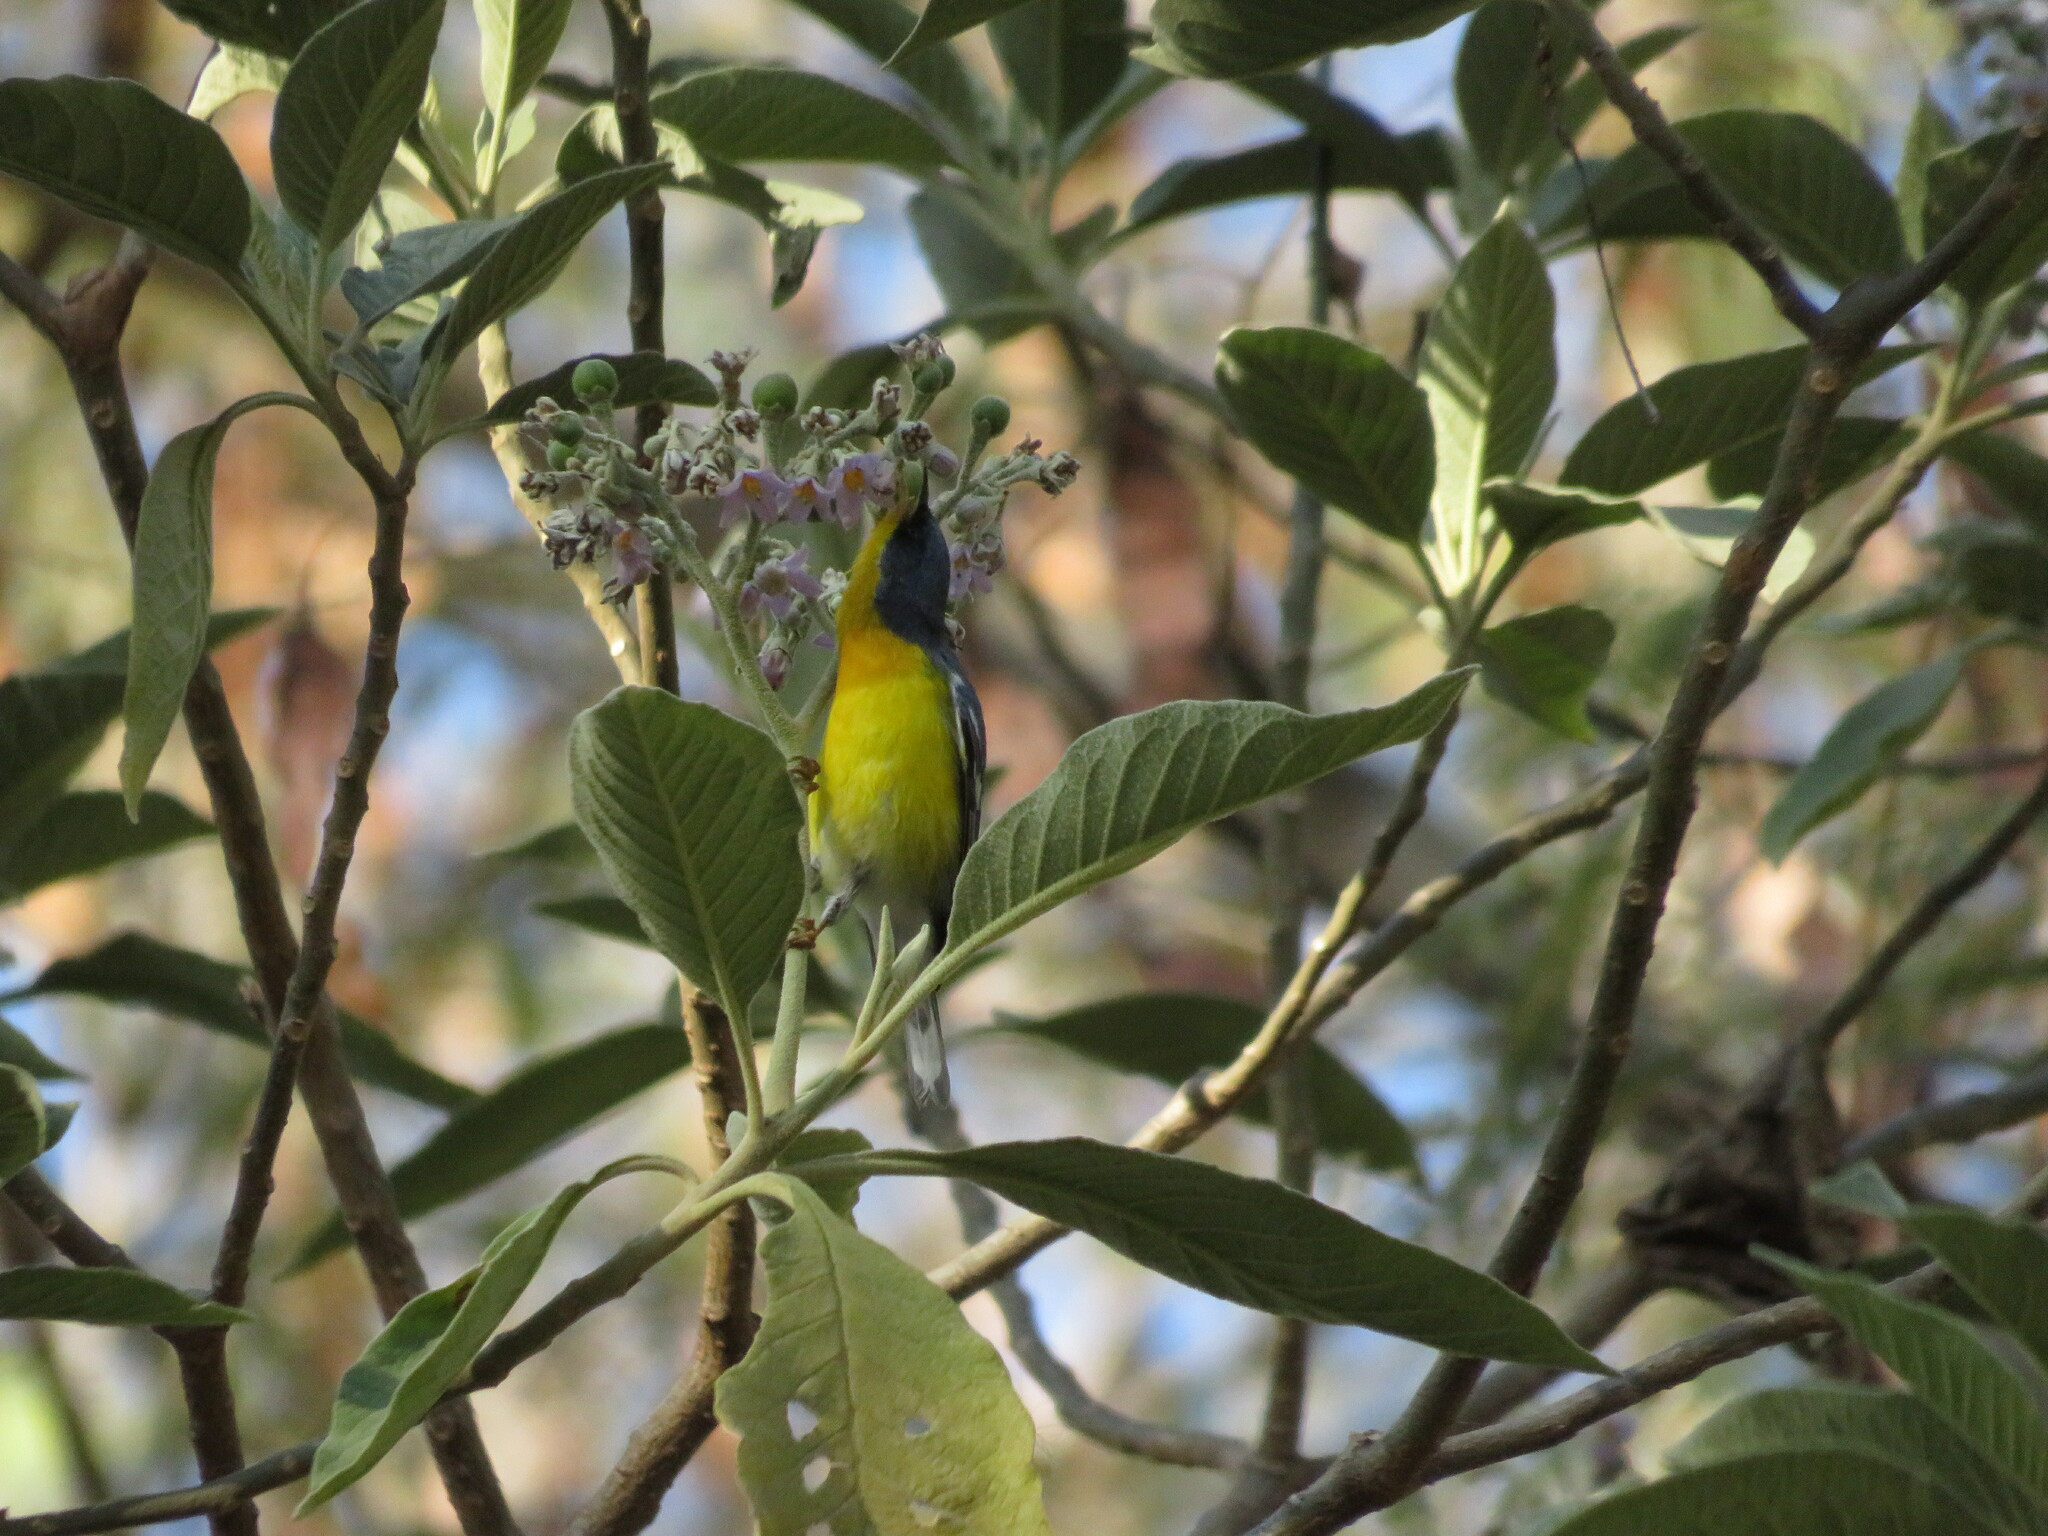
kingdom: Animalia
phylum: Chordata
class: Aves
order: Passeriformes
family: Parulidae
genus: Setophaga
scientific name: Setophaga pitiayumi
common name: Tropical parula
